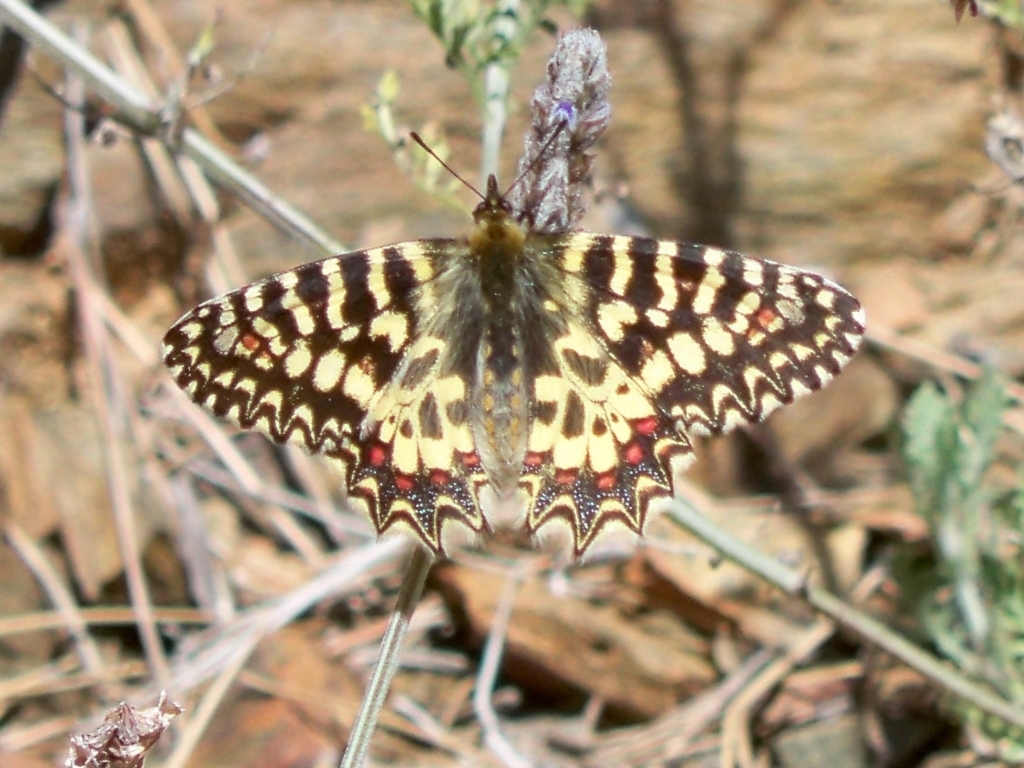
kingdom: Animalia
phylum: Arthropoda
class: Insecta
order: Lepidoptera
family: Papilionidae
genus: Zerynthia
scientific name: Zerynthia rumina
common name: Spanish festoon
